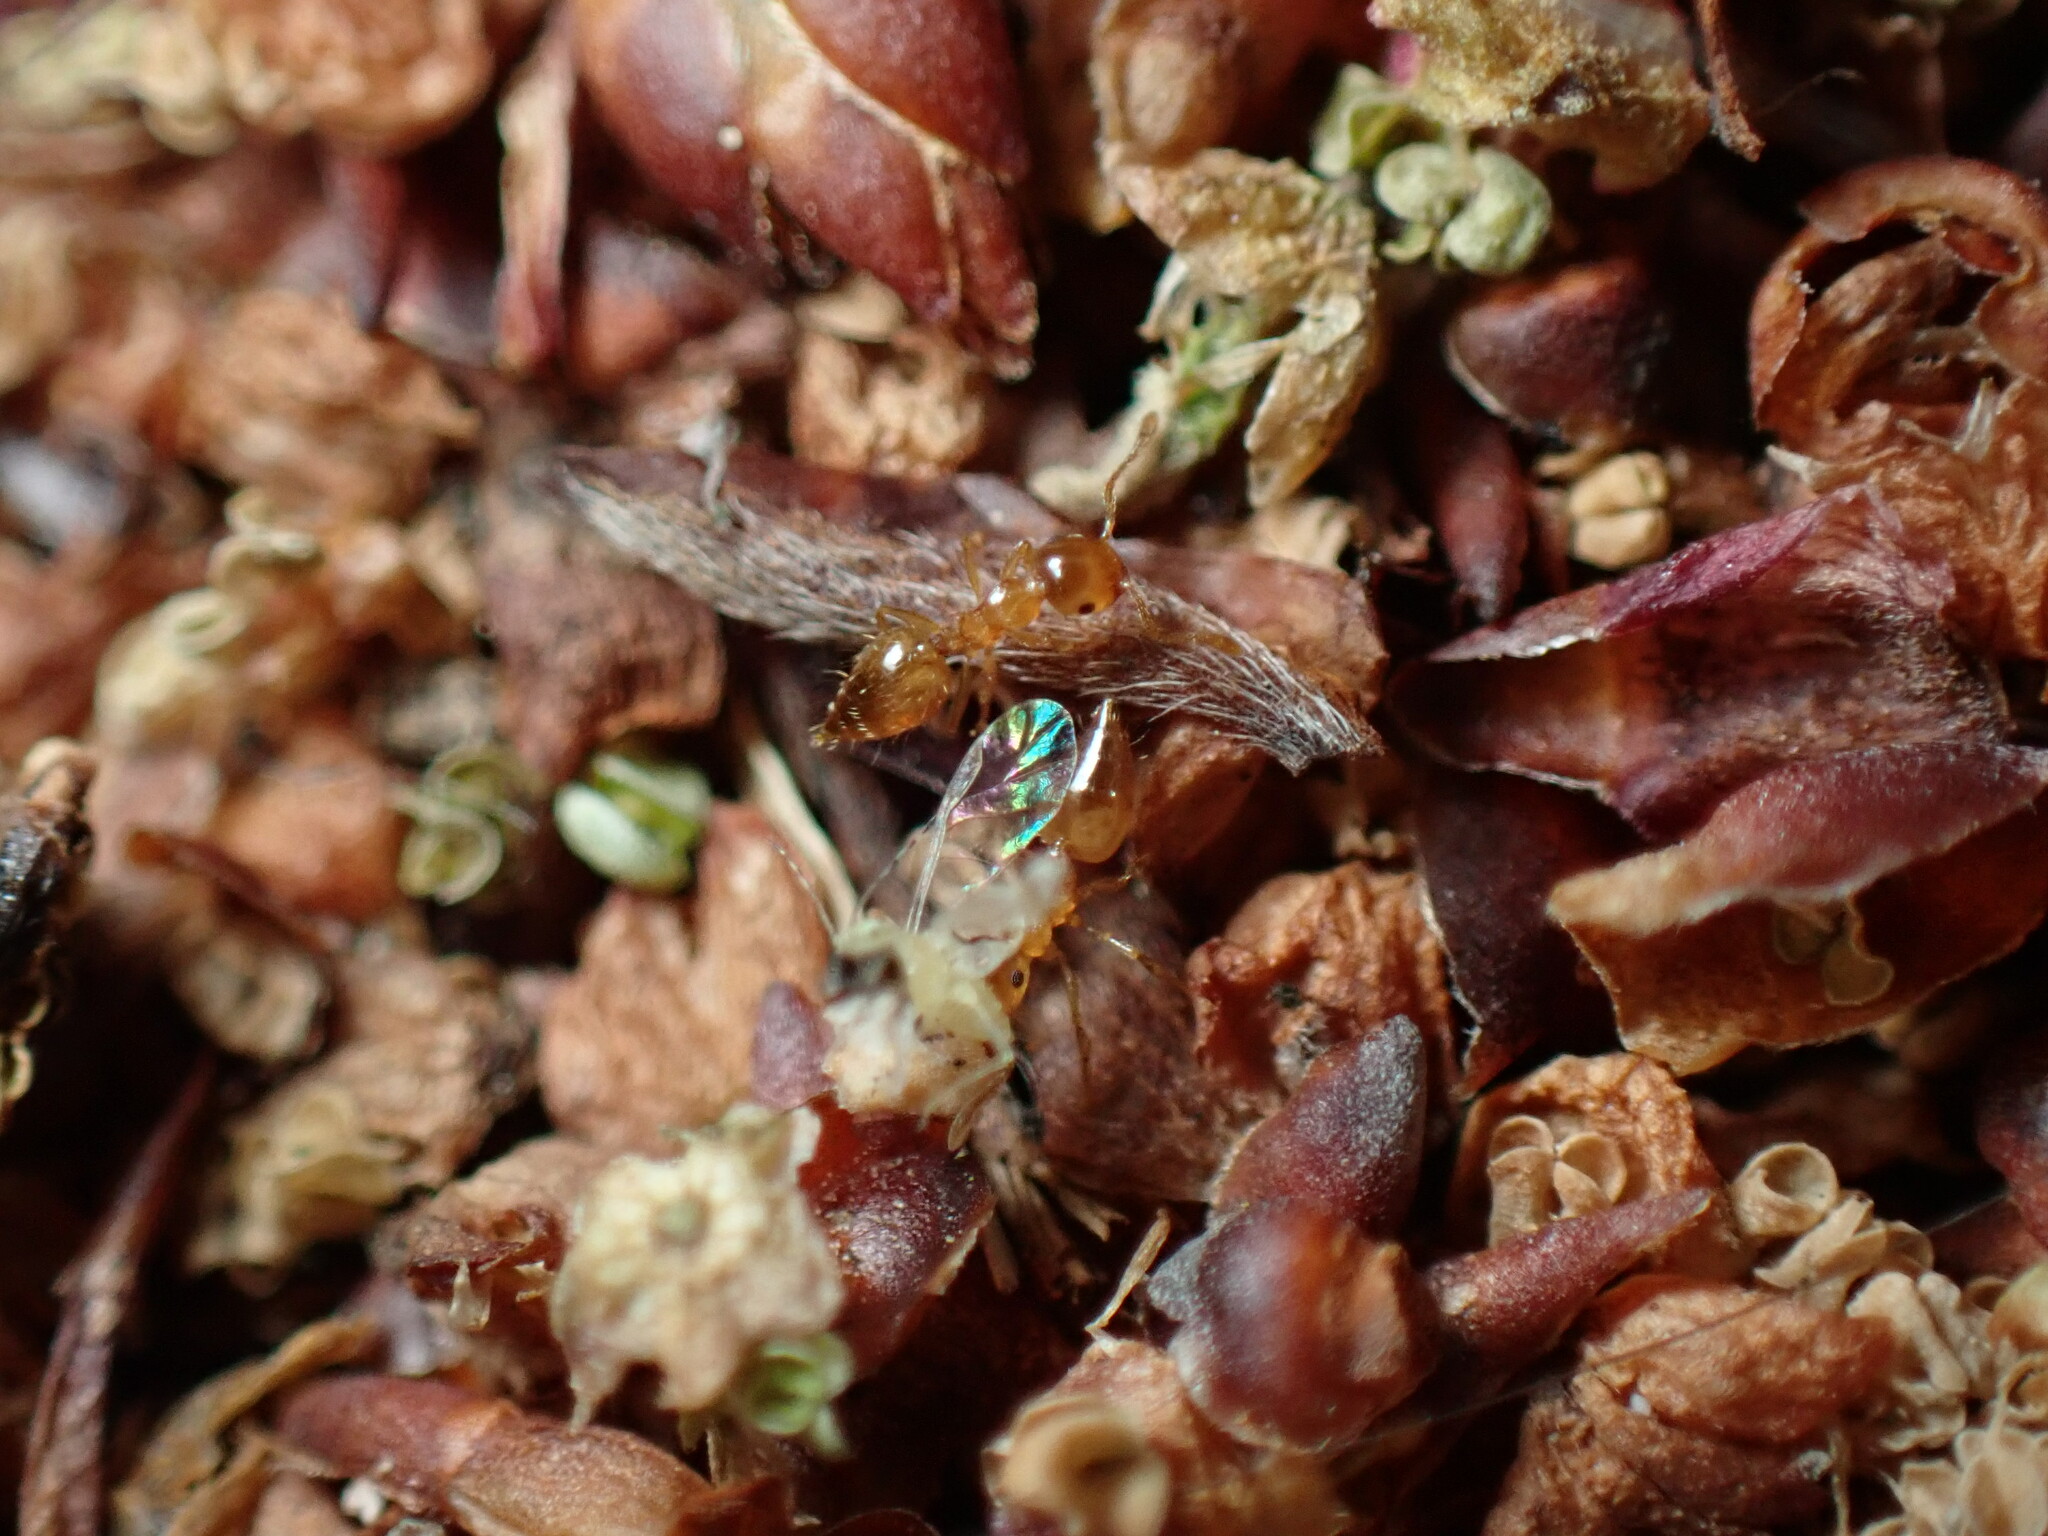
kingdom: Animalia
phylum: Arthropoda
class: Insecta
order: Hymenoptera
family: Formicidae
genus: Crematogaster
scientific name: Crematogaster osakensis
